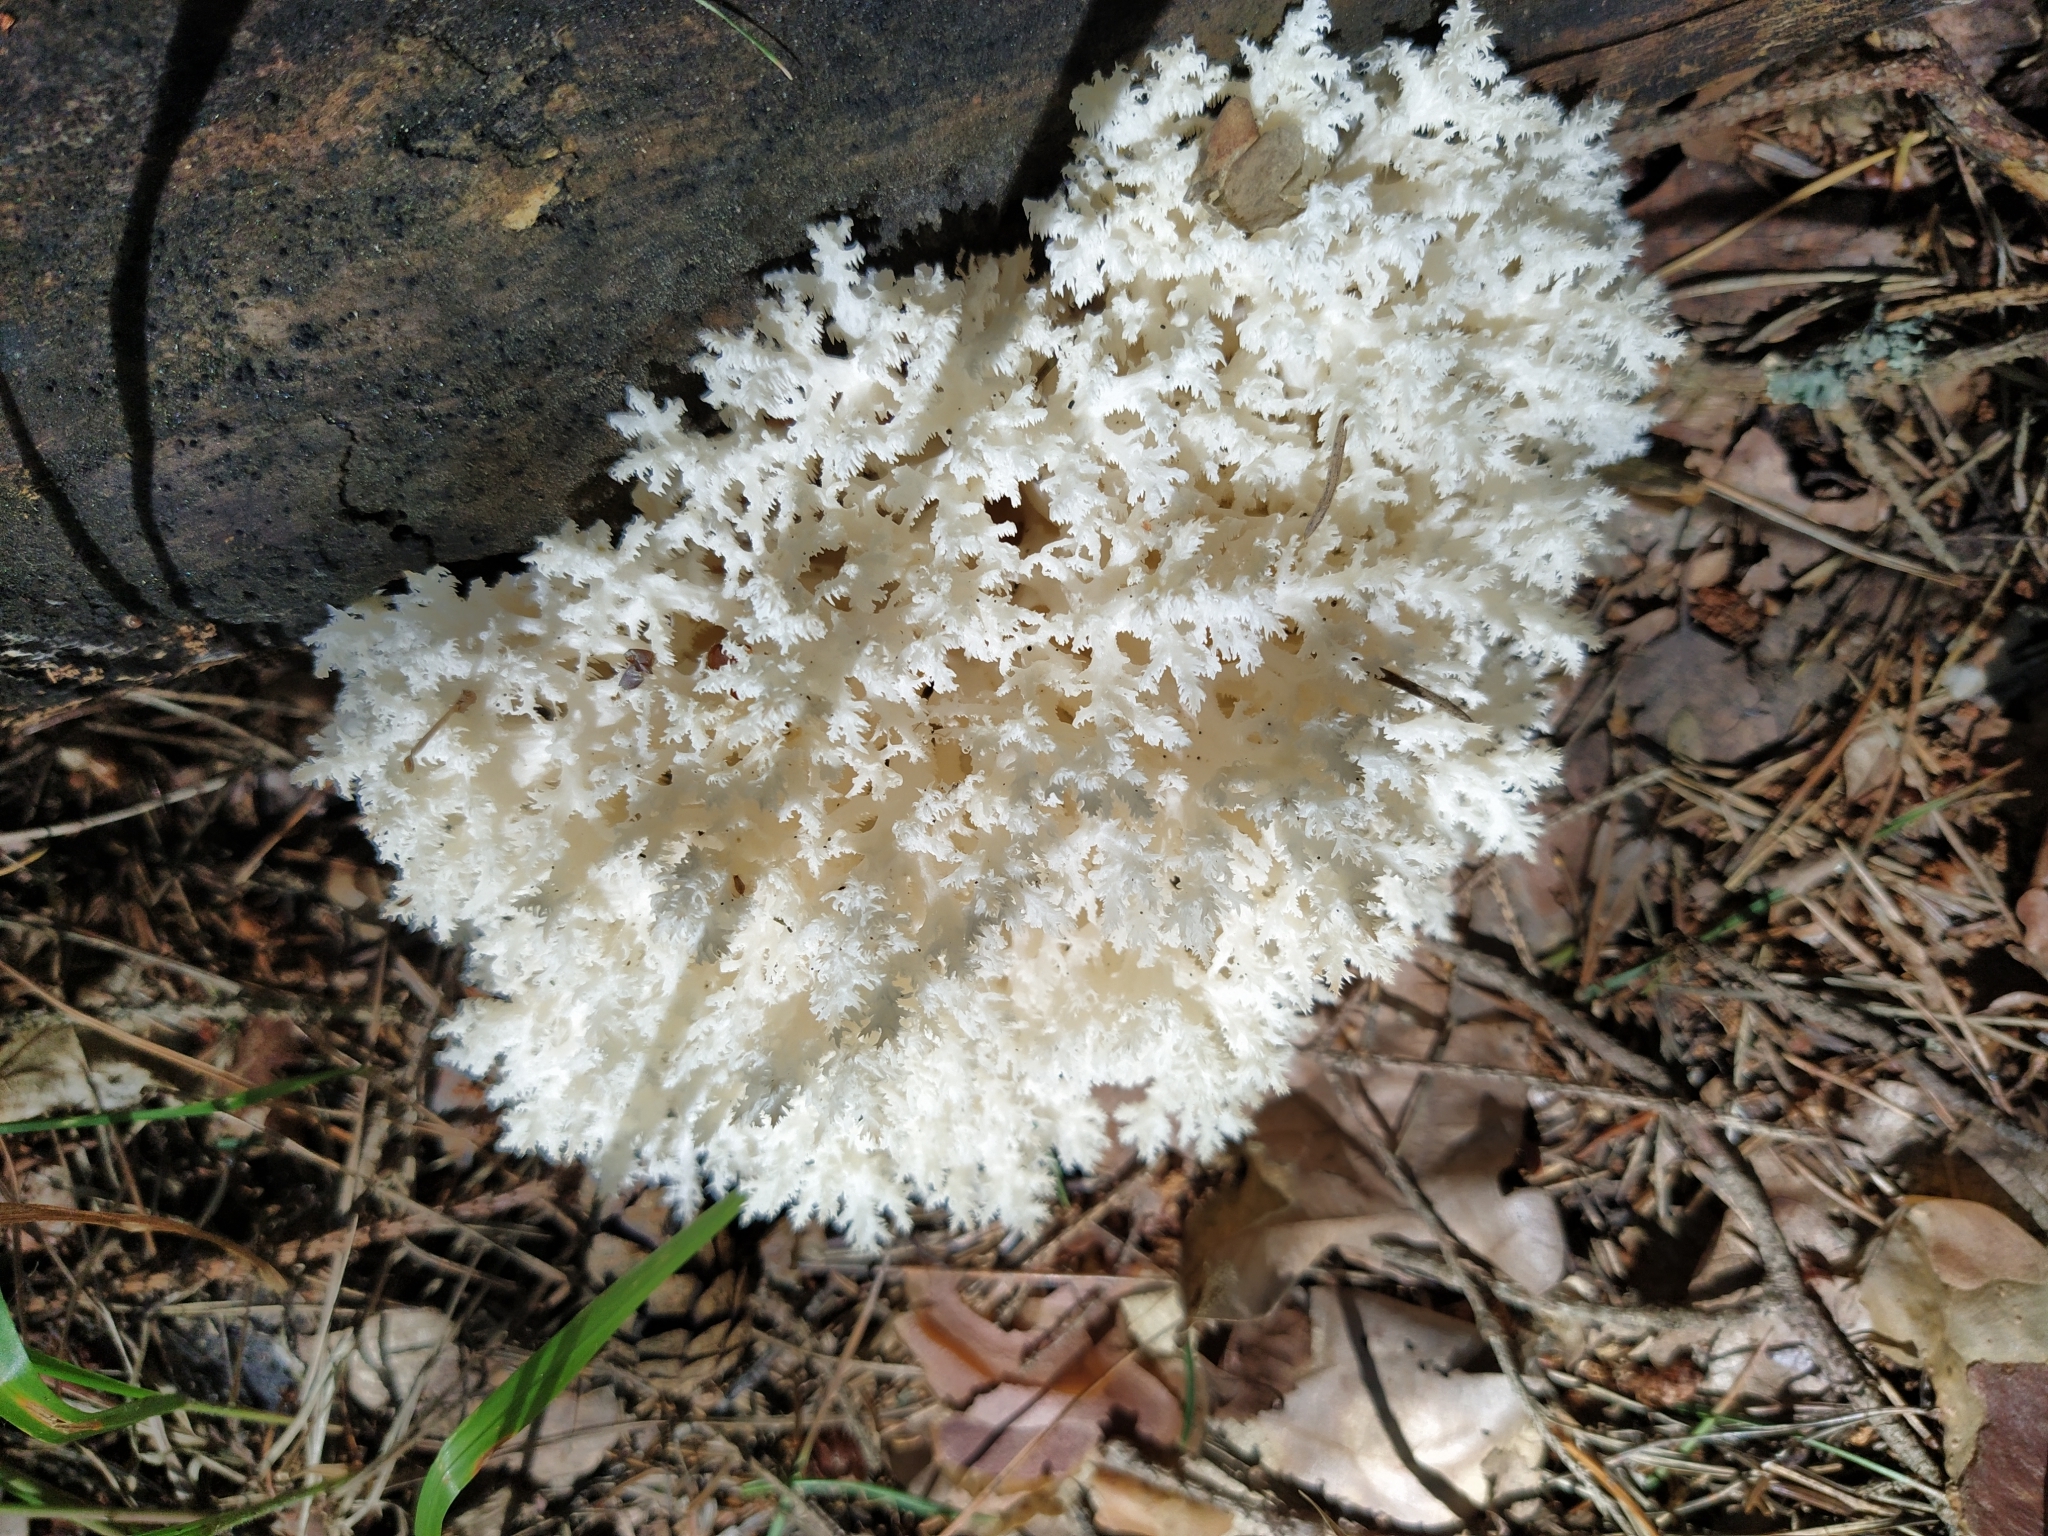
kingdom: Fungi
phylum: Basidiomycota
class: Agaricomycetes
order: Russulales
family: Hericiaceae
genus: Hericium
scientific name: Hericium coralloides
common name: Coral tooth
